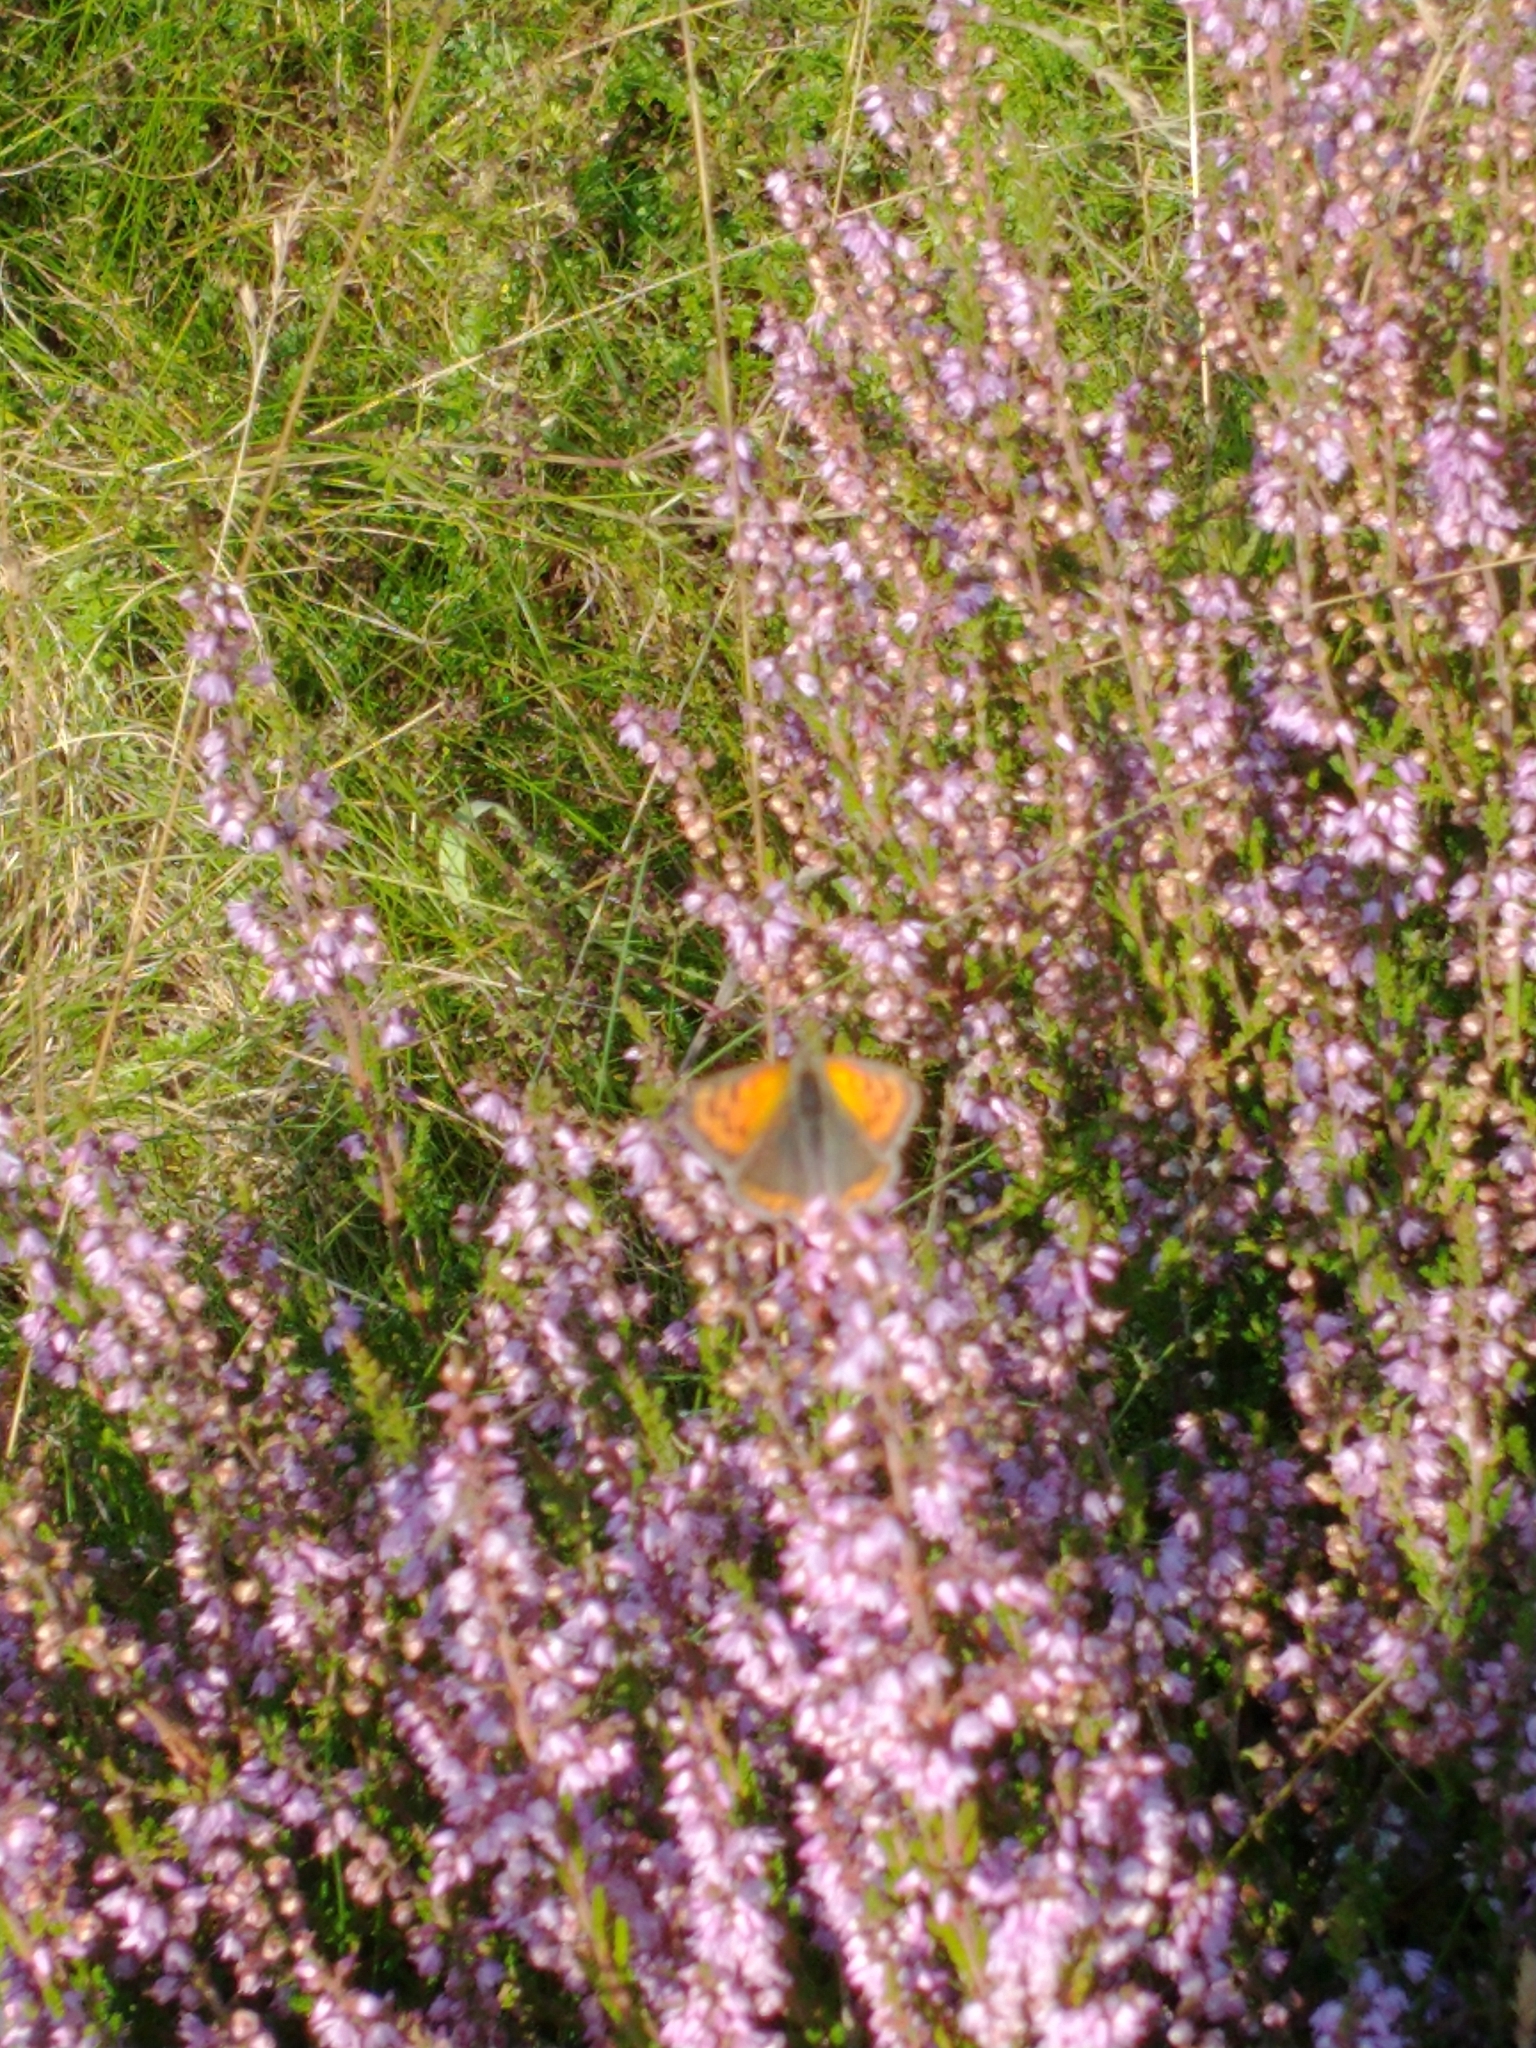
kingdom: Animalia
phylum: Arthropoda
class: Insecta
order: Lepidoptera
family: Lycaenidae
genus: Lycaena
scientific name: Lycaena phlaeas
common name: Small copper
